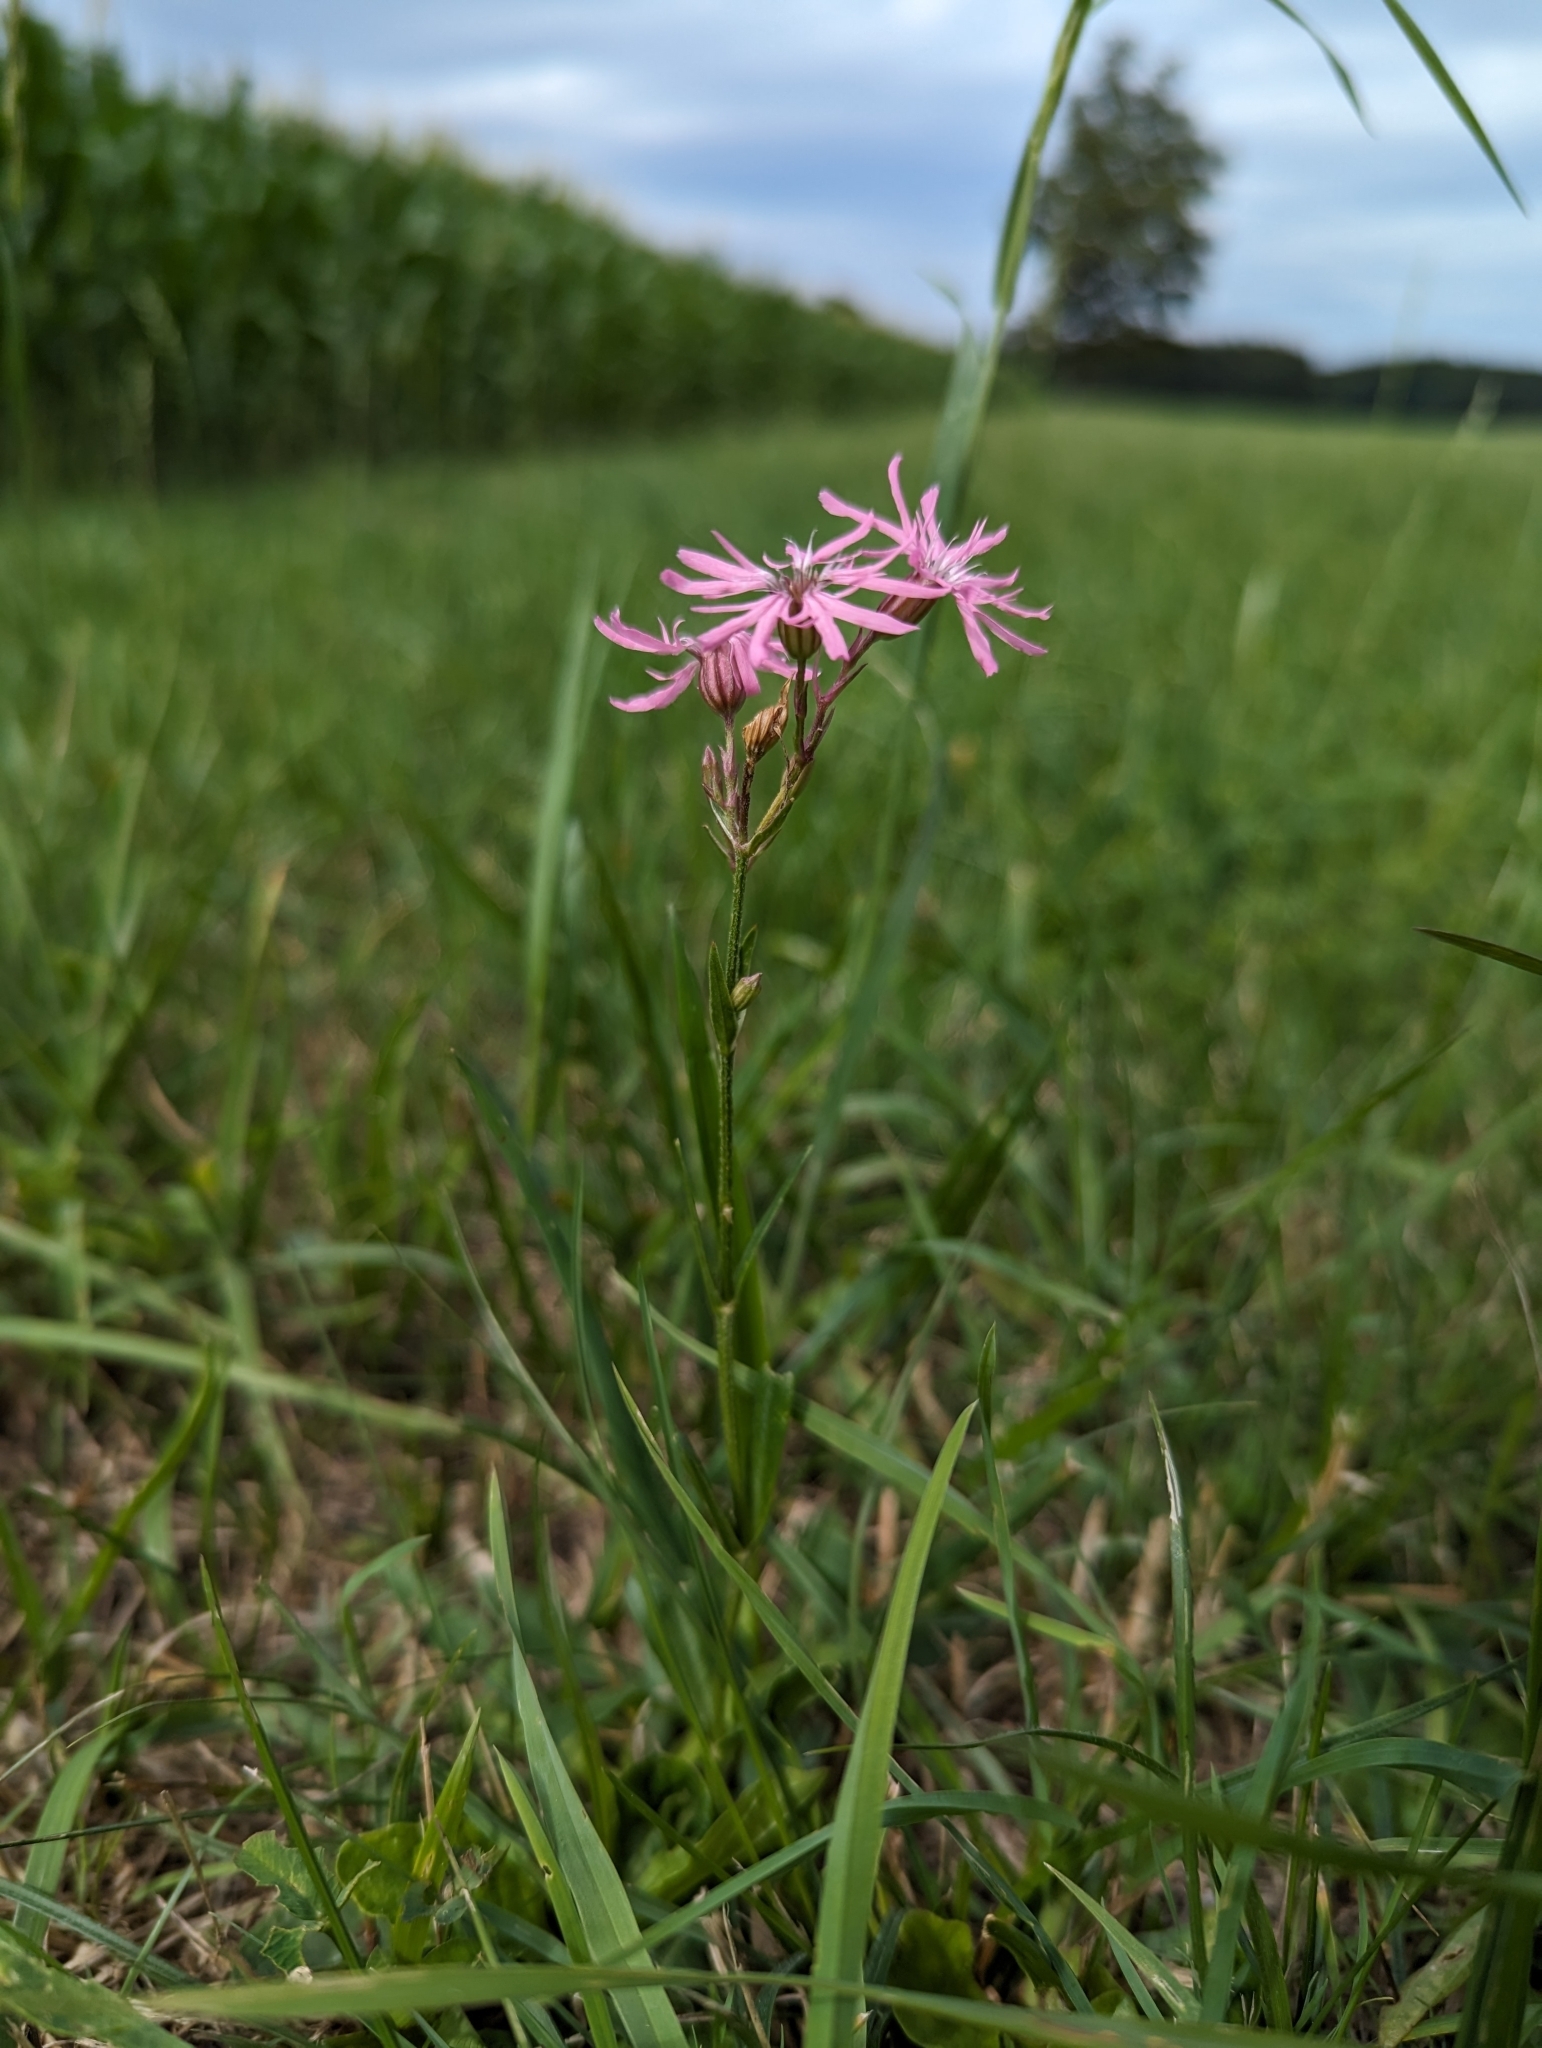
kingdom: Plantae
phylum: Tracheophyta
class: Magnoliopsida
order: Caryophyllales
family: Caryophyllaceae
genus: Silene
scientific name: Silene flos-cuculi
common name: Ragged-robin
